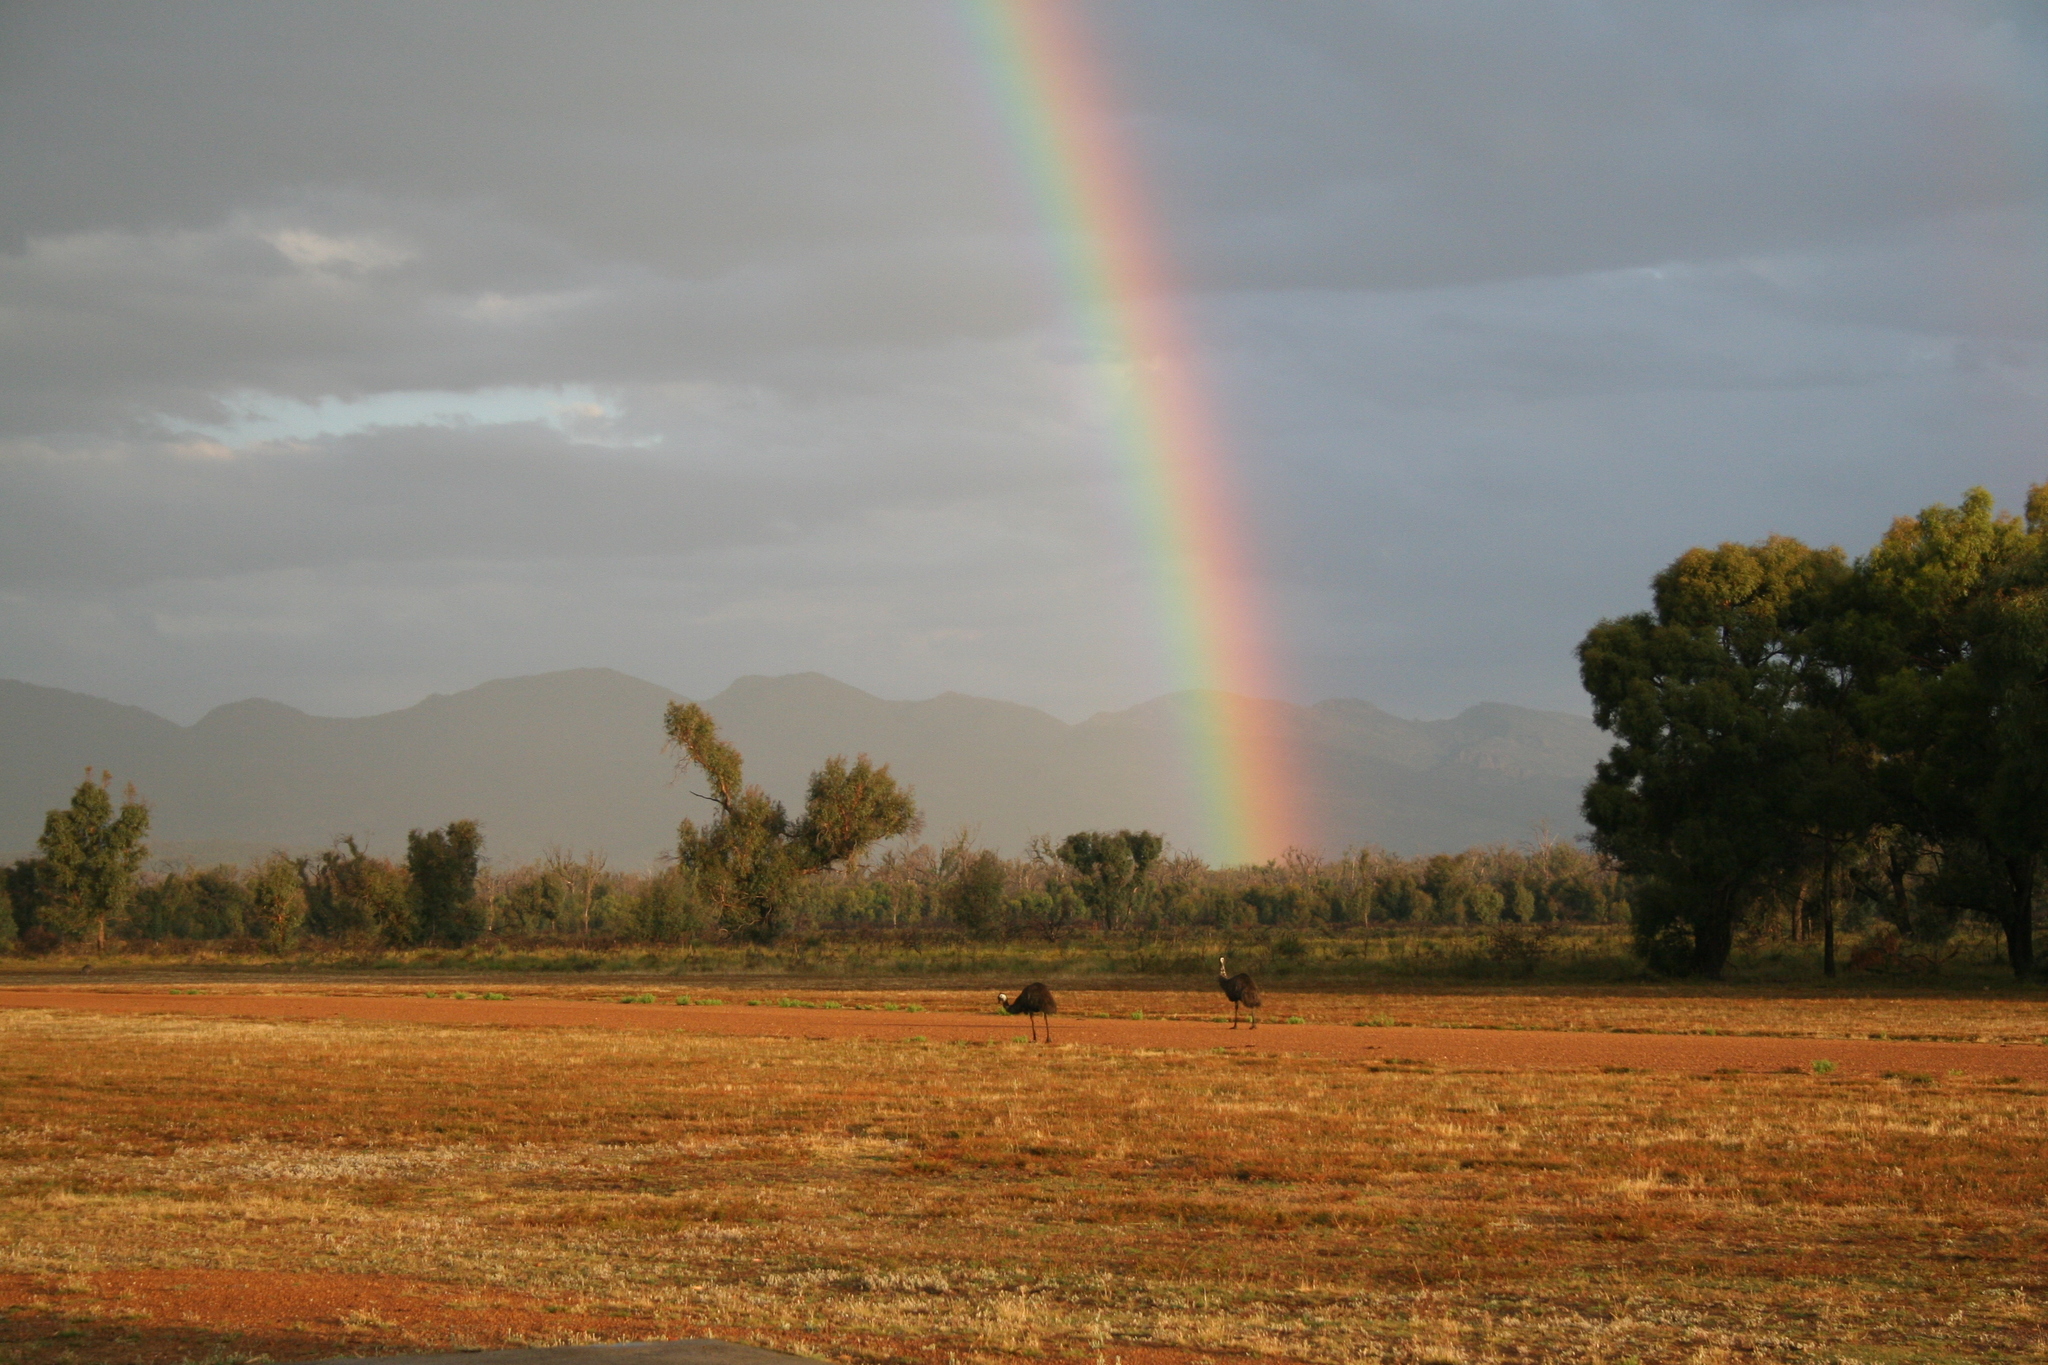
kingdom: Animalia
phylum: Chordata
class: Aves
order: Casuariiformes
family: Dromaiidae
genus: Dromaius
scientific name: Dromaius novaehollandiae
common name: Emu
